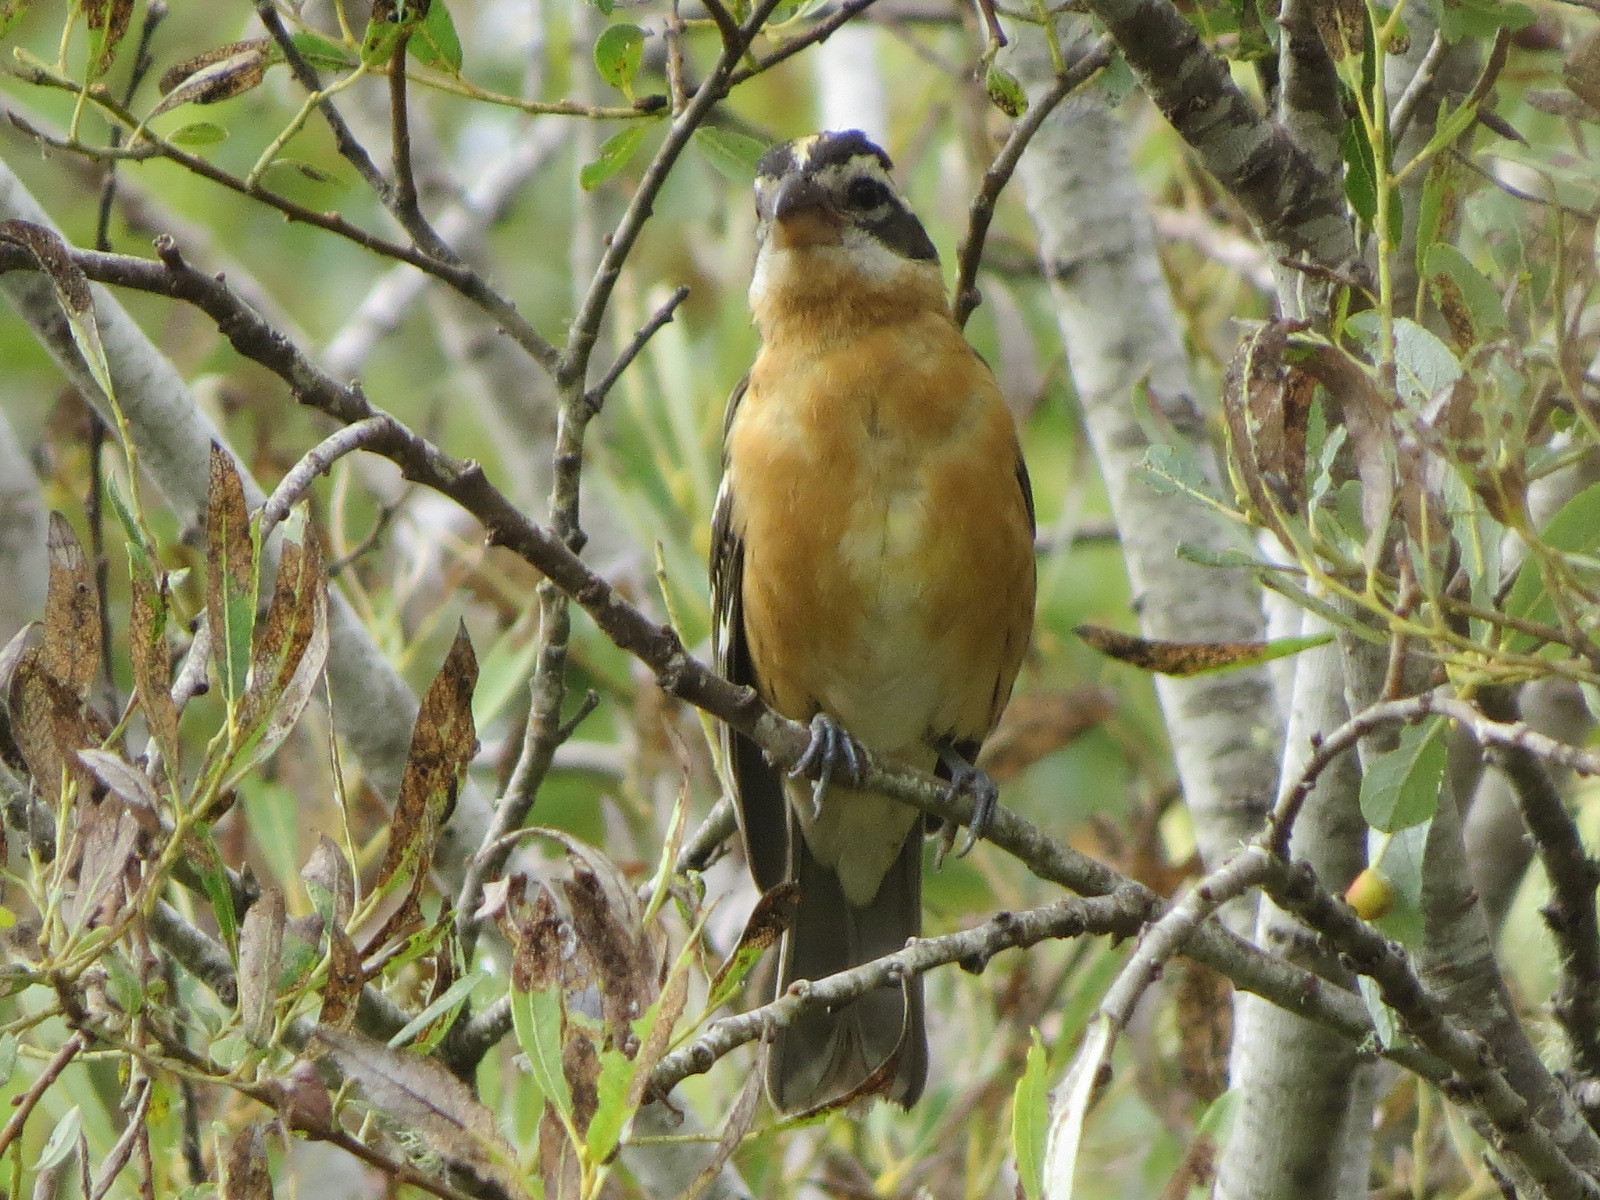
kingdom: Animalia
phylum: Chordata
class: Aves
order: Passeriformes
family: Cardinalidae
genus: Pheucticus
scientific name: Pheucticus melanocephalus
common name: Black-headed grosbeak
